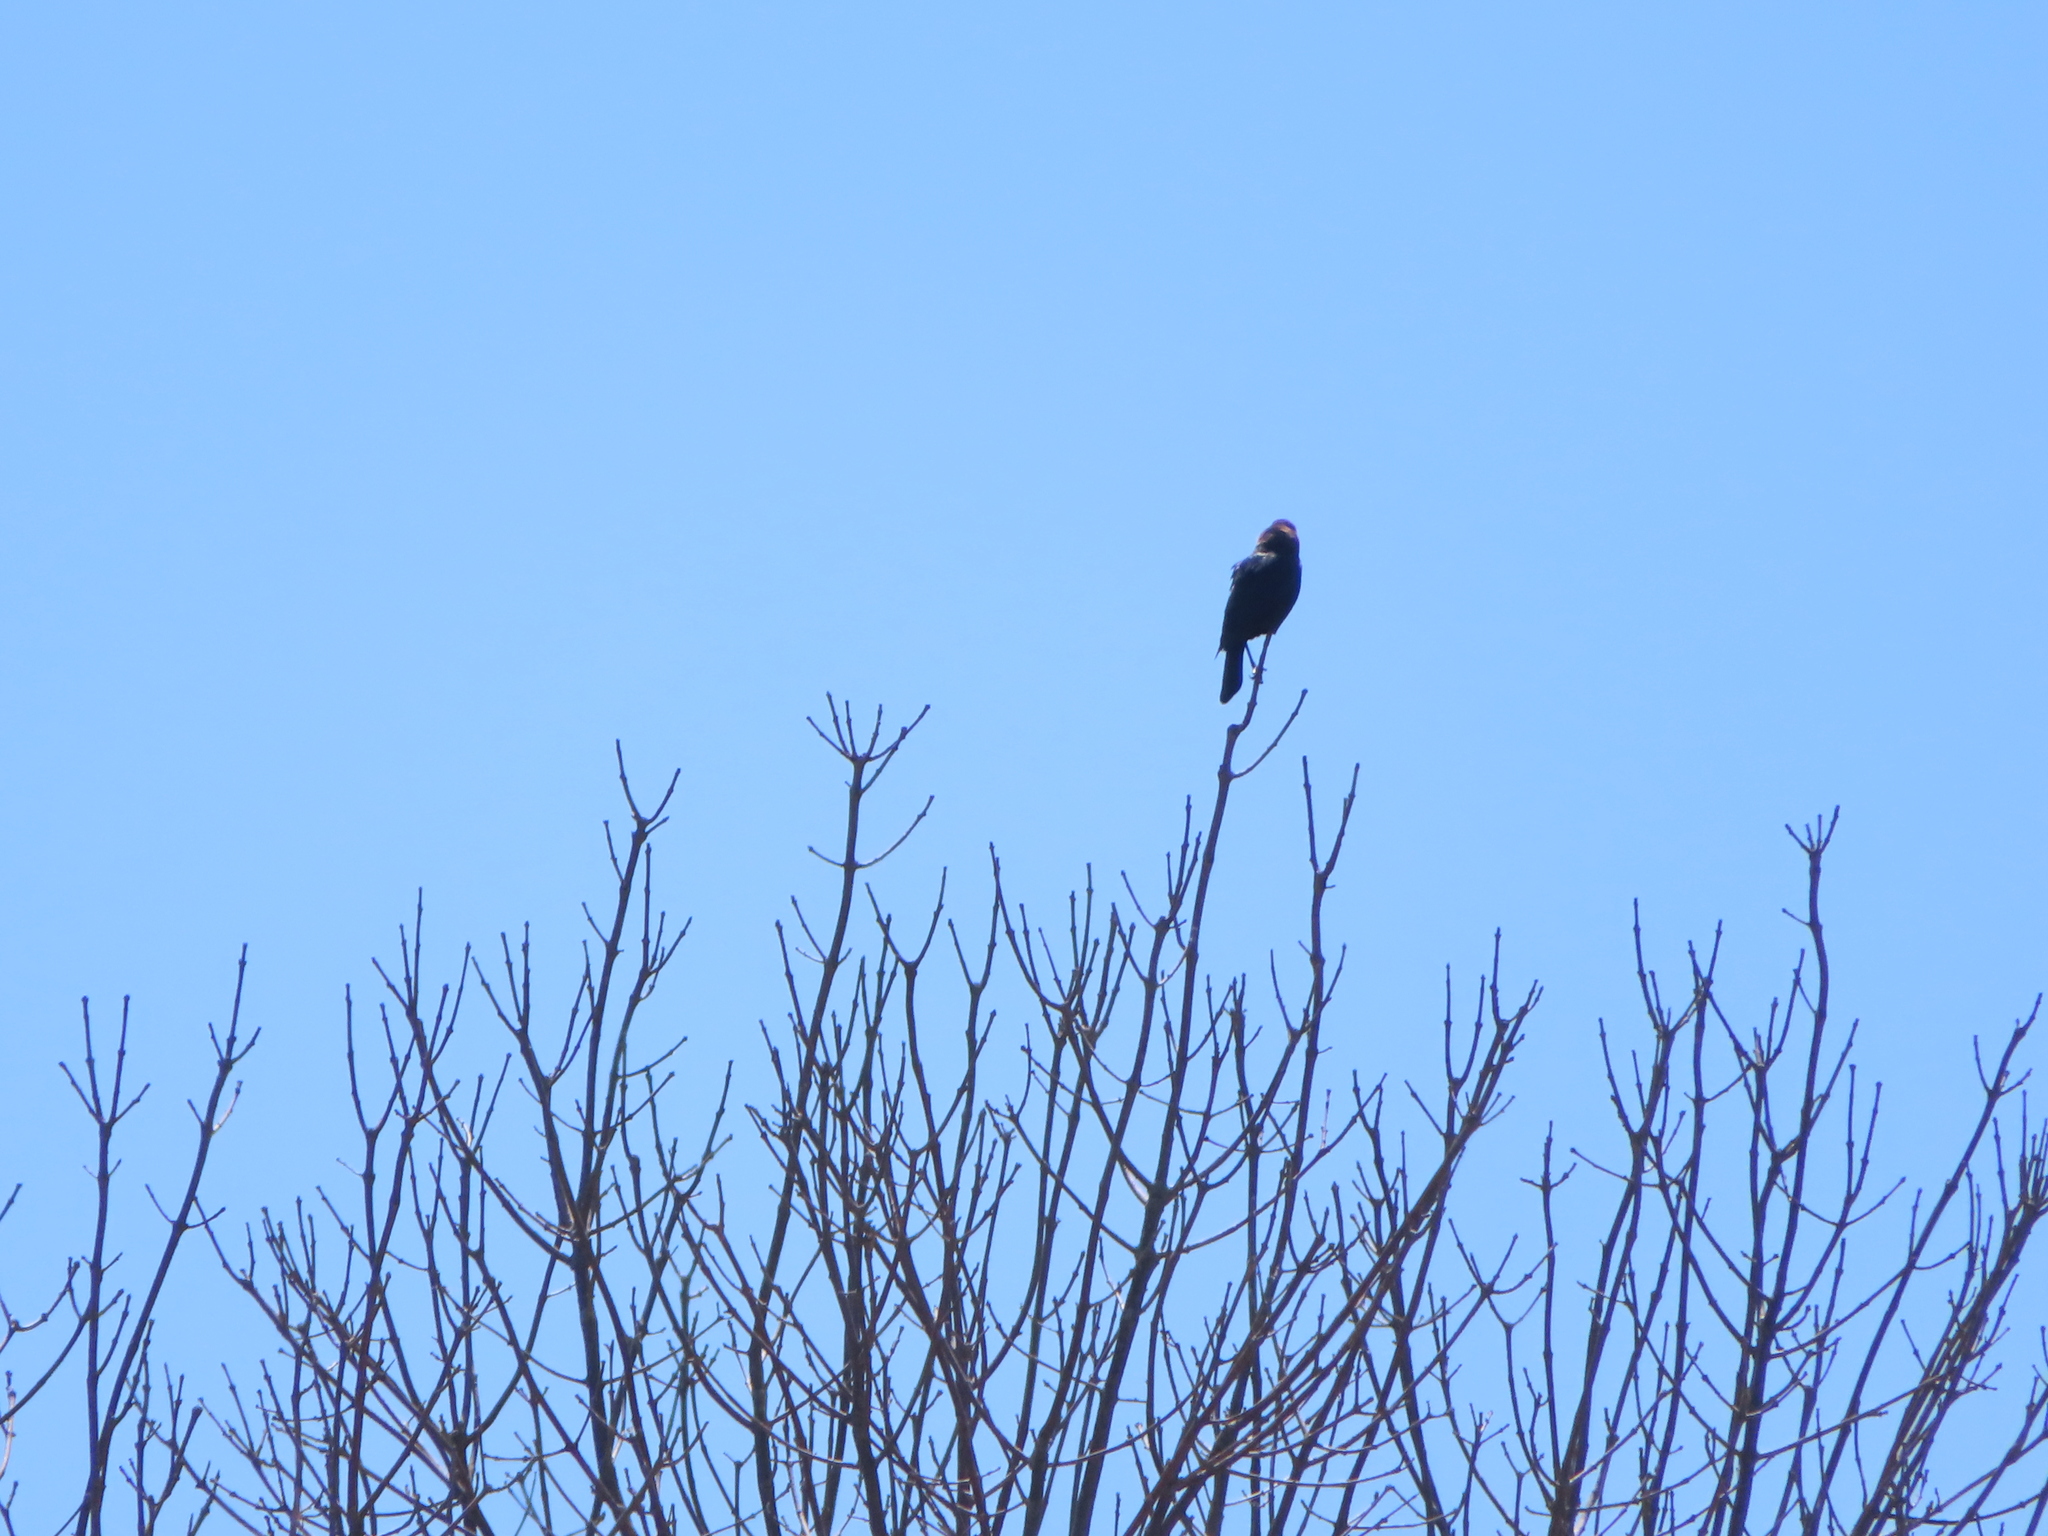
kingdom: Animalia
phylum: Chordata
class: Aves
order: Passeriformes
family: Icteridae
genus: Molothrus
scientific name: Molothrus ater
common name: Brown-headed cowbird
